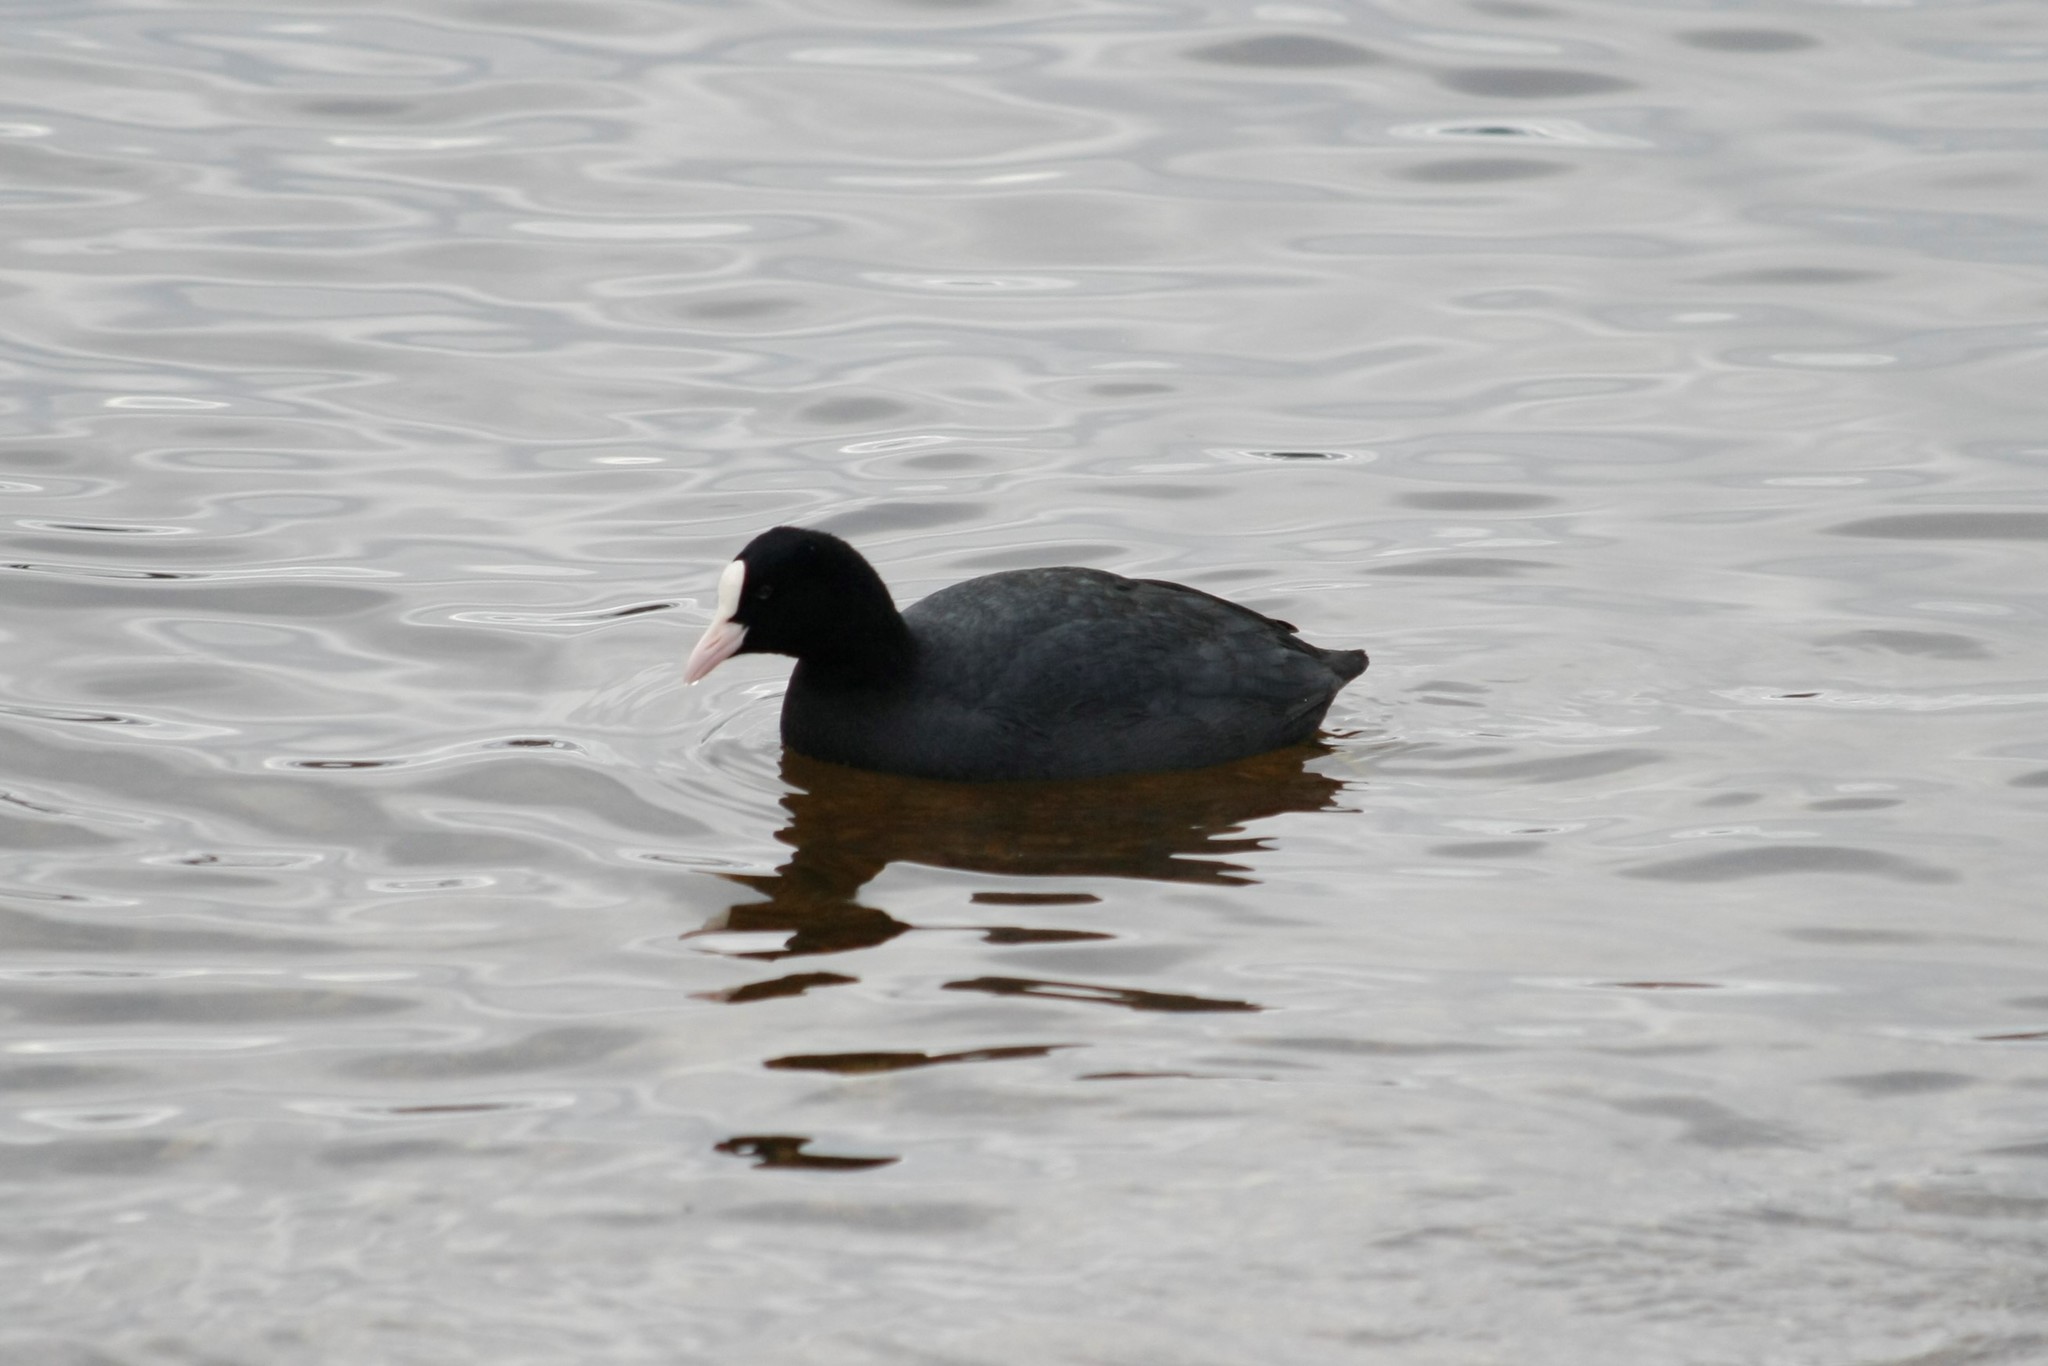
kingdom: Animalia
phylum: Chordata
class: Aves
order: Gruiformes
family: Rallidae
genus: Fulica
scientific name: Fulica atra
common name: Eurasian coot
